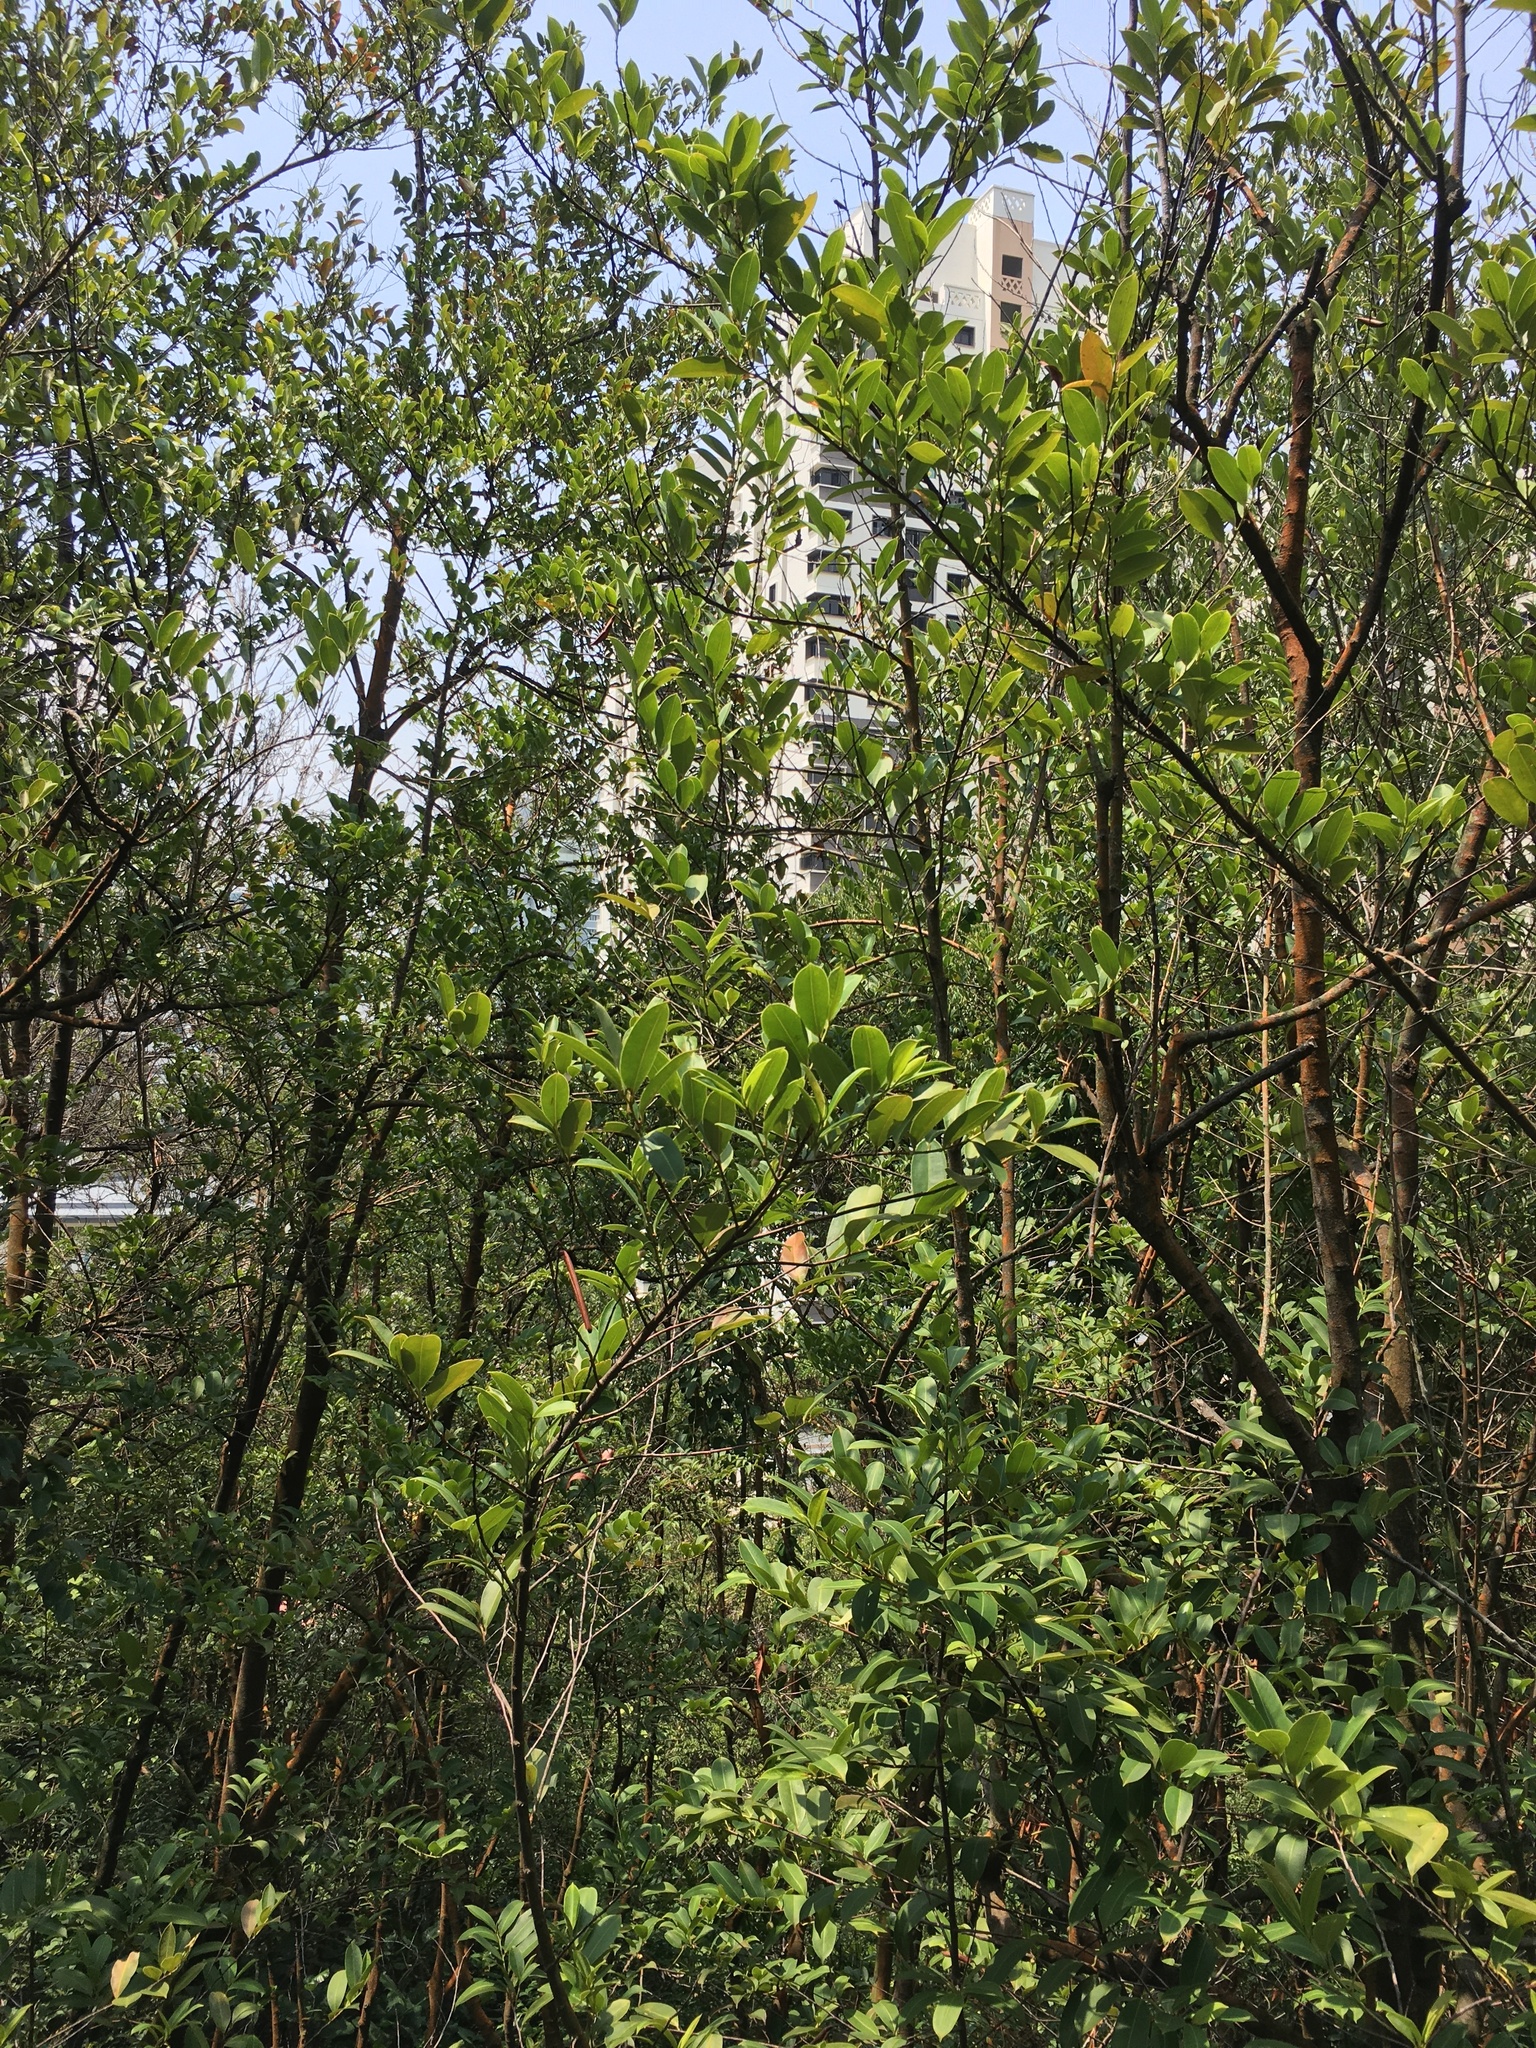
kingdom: Plantae
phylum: Tracheophyta
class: Magnoliopsida
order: Ericales
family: Pentaphylacaceae
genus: Adinandra
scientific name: Adinandra dumosa
